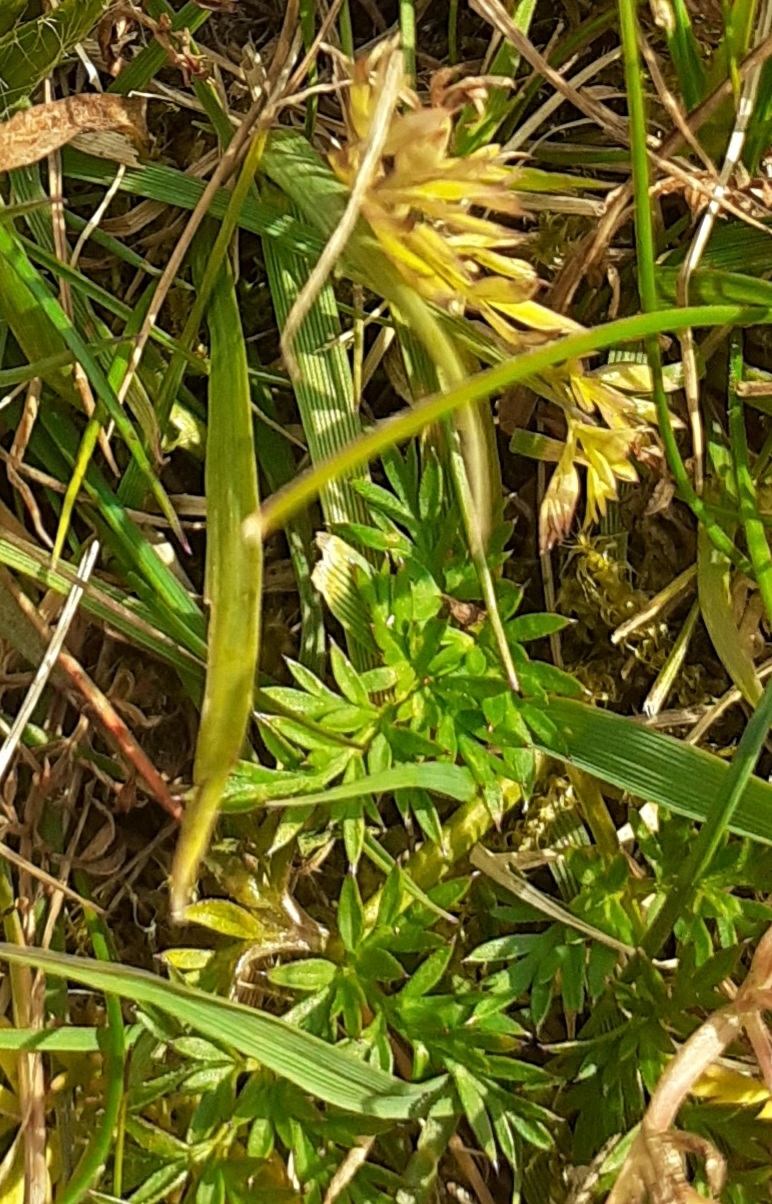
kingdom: Plantae
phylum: Tracheophyta
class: Magnoliopsida
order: Apiales
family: Apiaceae
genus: Conopodium
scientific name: Conopodium majus
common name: Pignut
